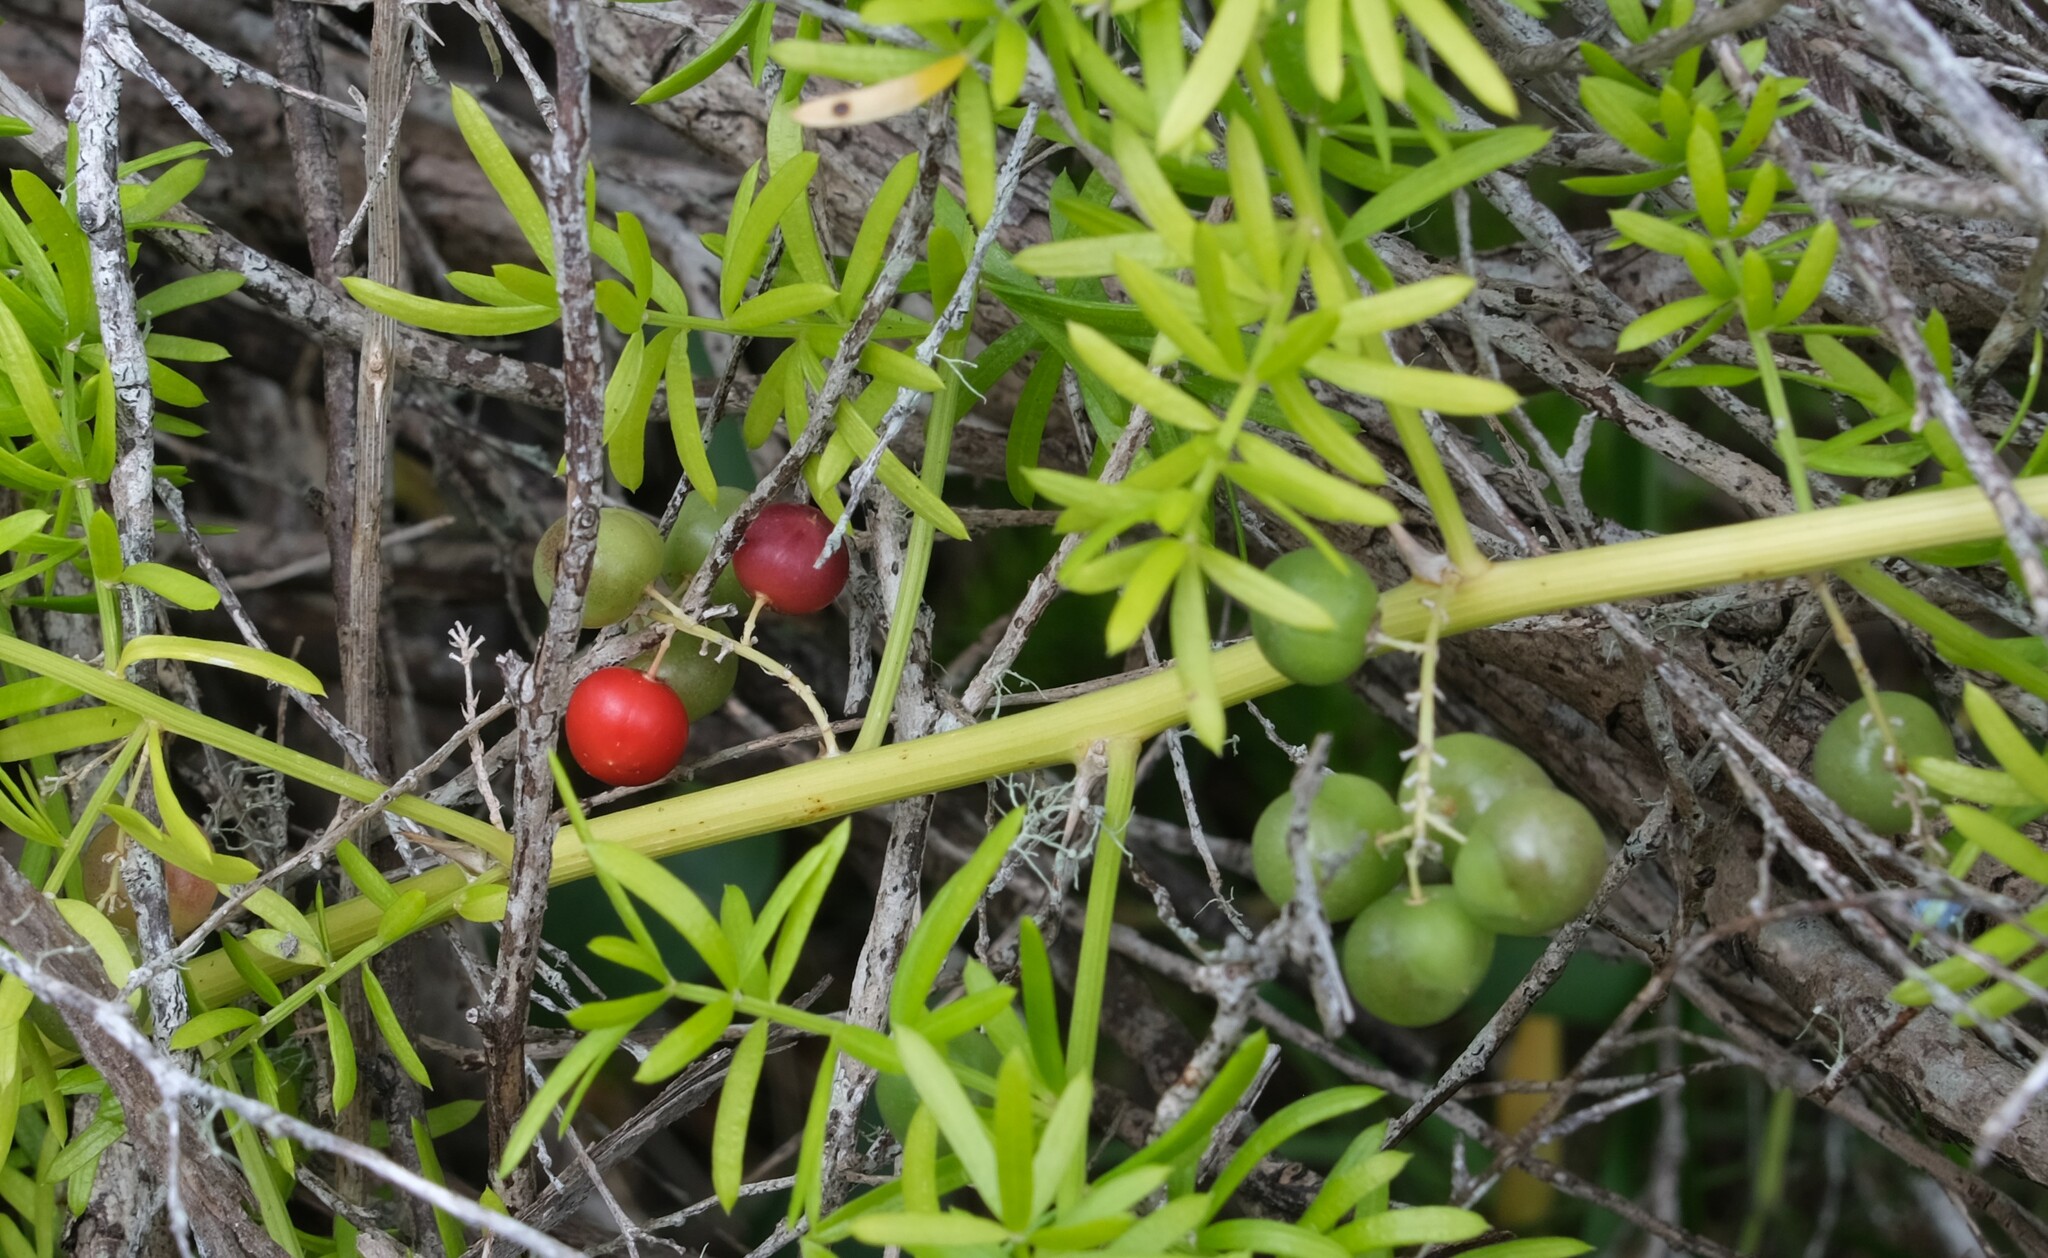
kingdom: Plantae
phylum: Tracheophyta
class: Liliopsida
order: Asparagales
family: Asparagaceae
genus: Asparagus
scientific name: Asparagus aethiopicus
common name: Sprenger's asparagus fern
